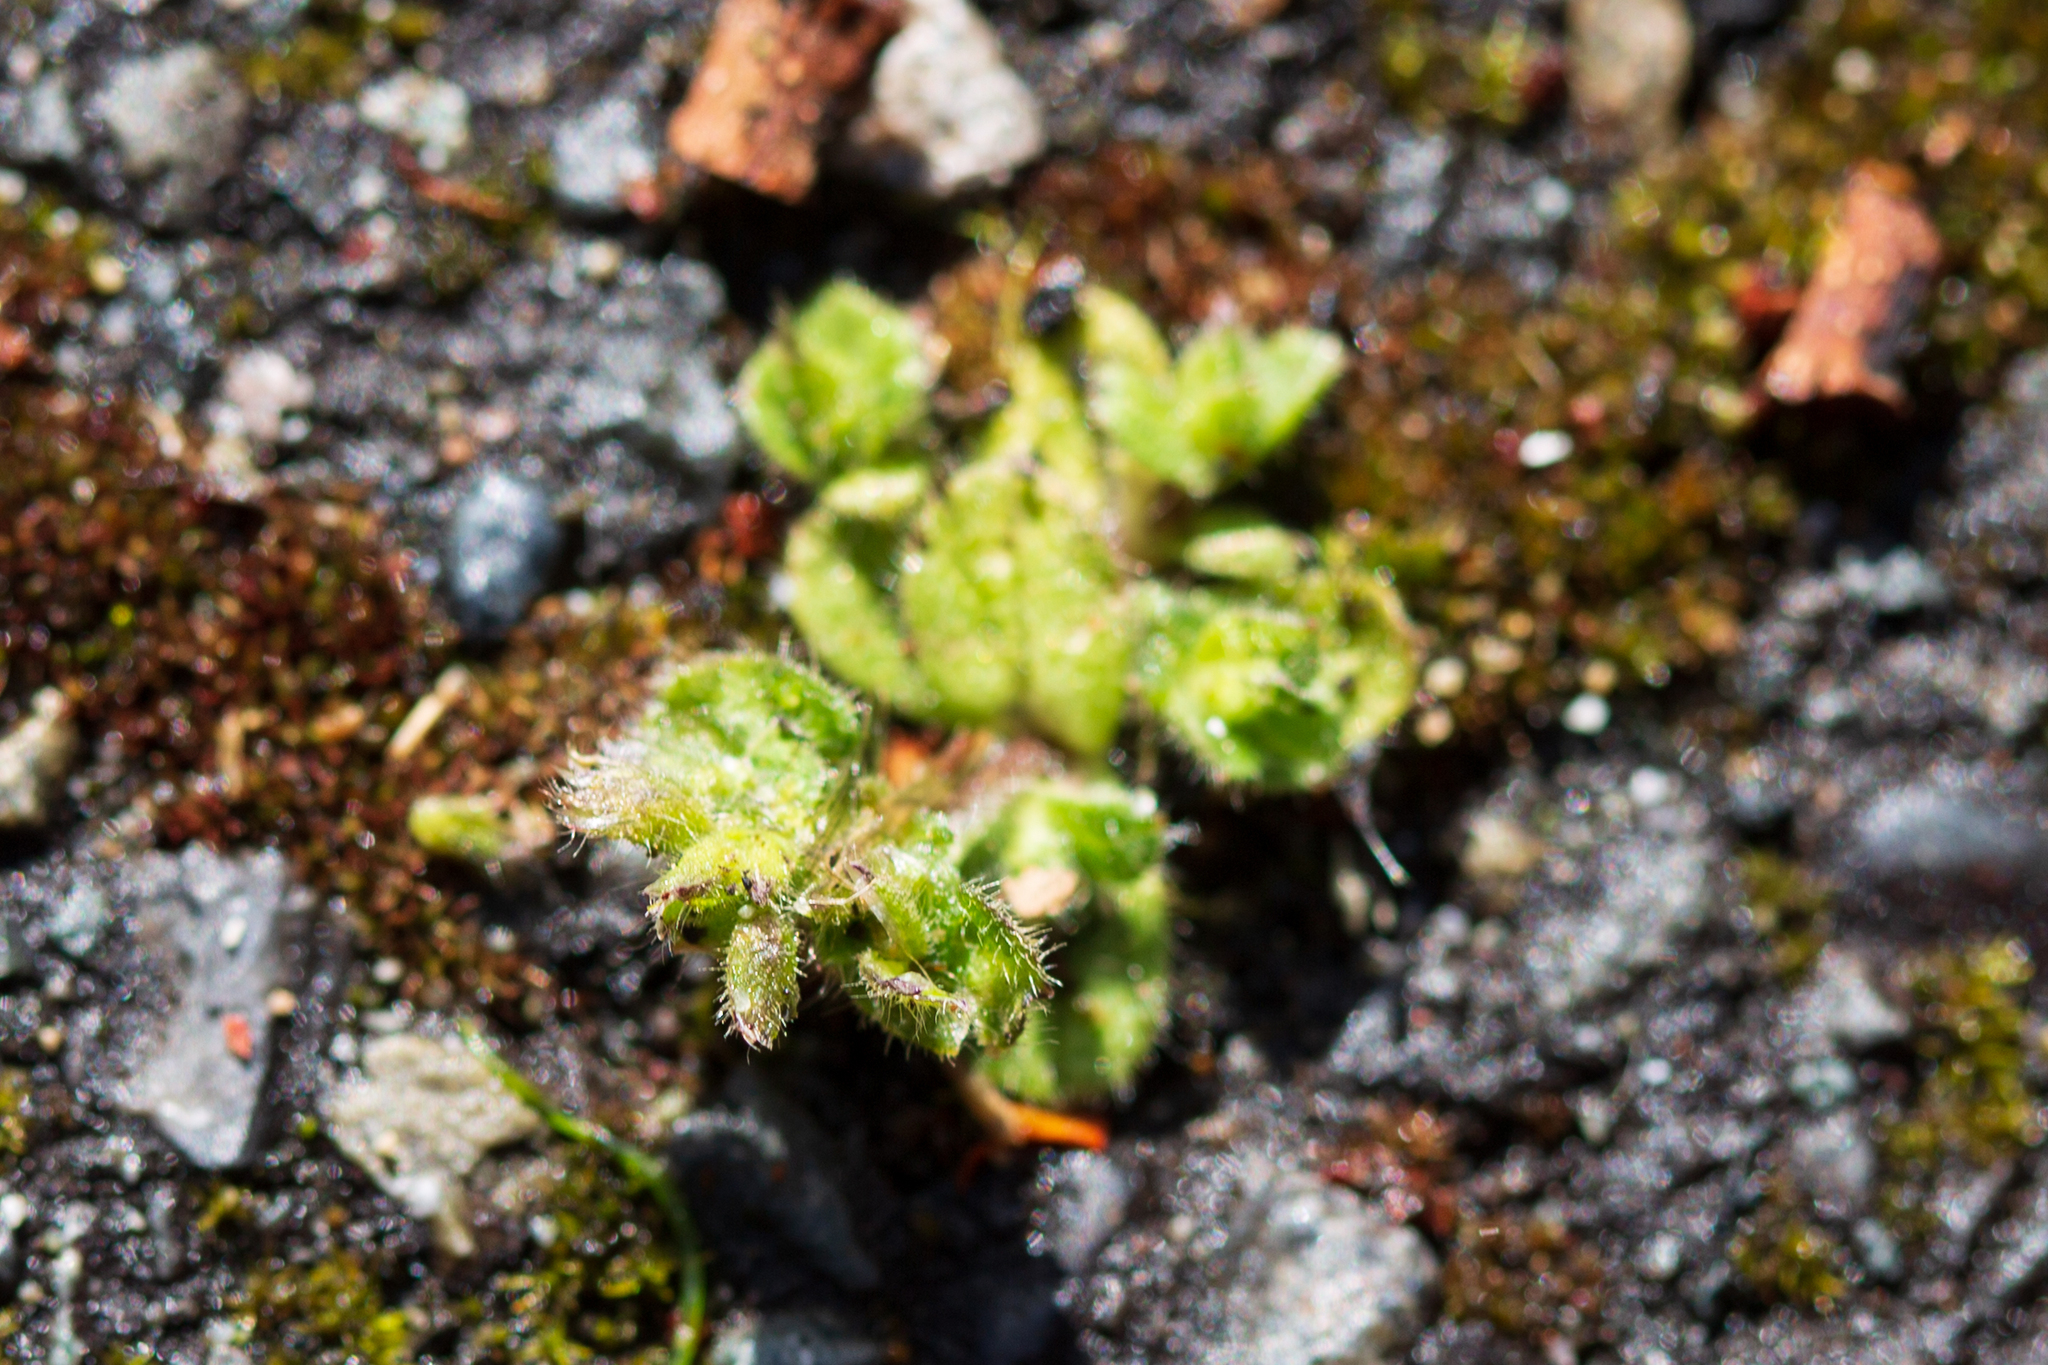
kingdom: Plantae
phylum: Tracheophyta
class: Magnoliopsida
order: Lamiales
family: Plantaginaceae
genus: Veronica
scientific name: Veronica arvensis
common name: Corn speedwell
